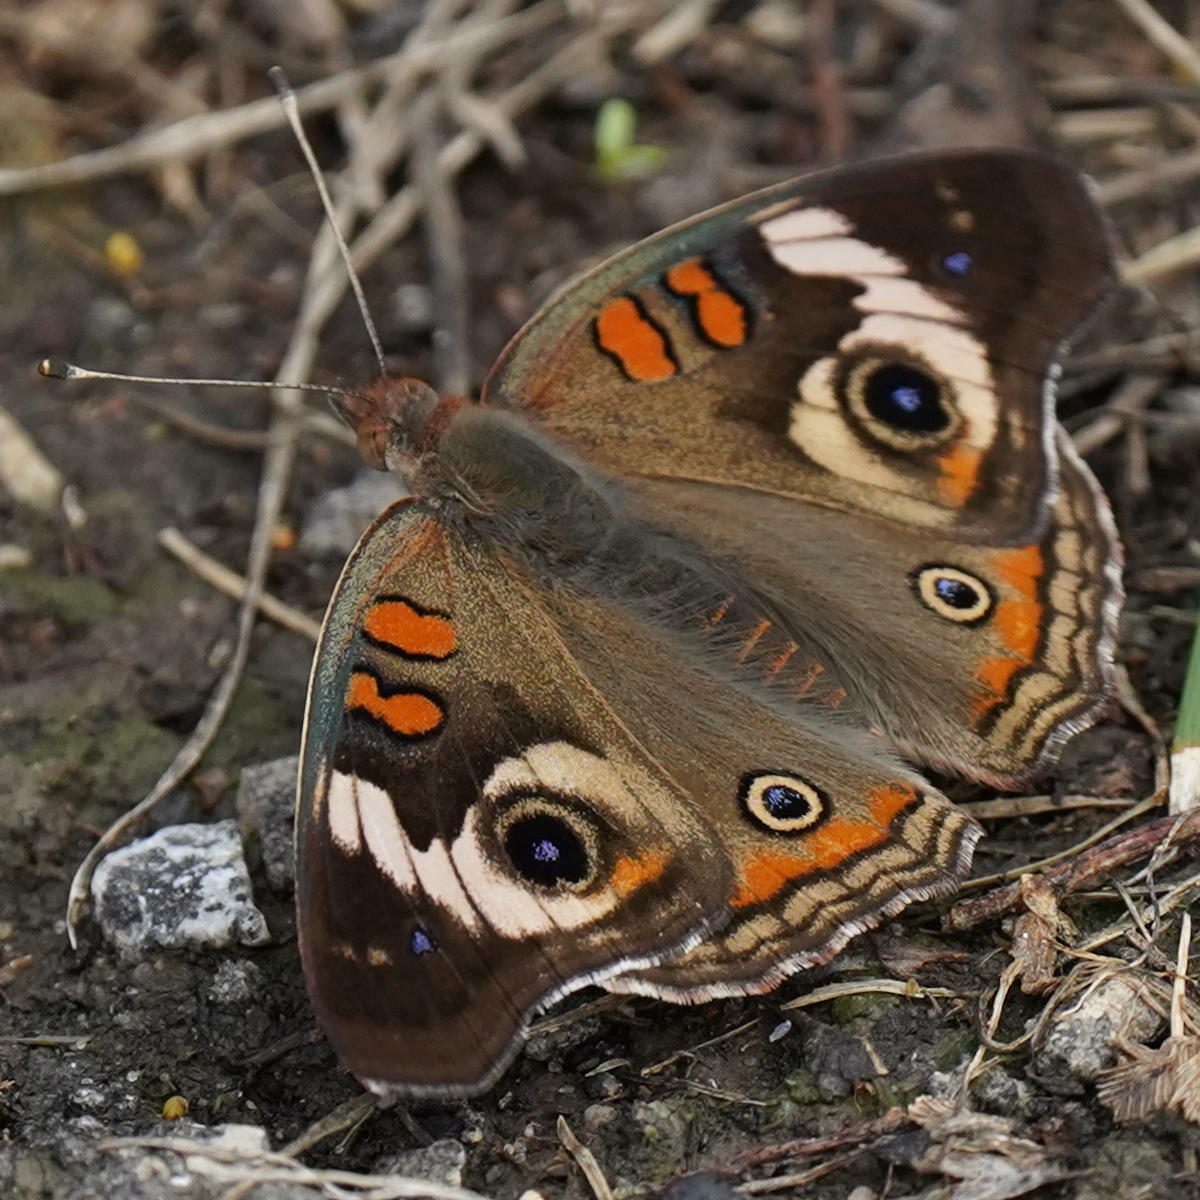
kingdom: Animalia
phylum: Arthropoda
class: Insecta
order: Lepidoptera
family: Nymphalidae
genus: Junonia
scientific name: Junonia coenia
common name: Common buckeye
